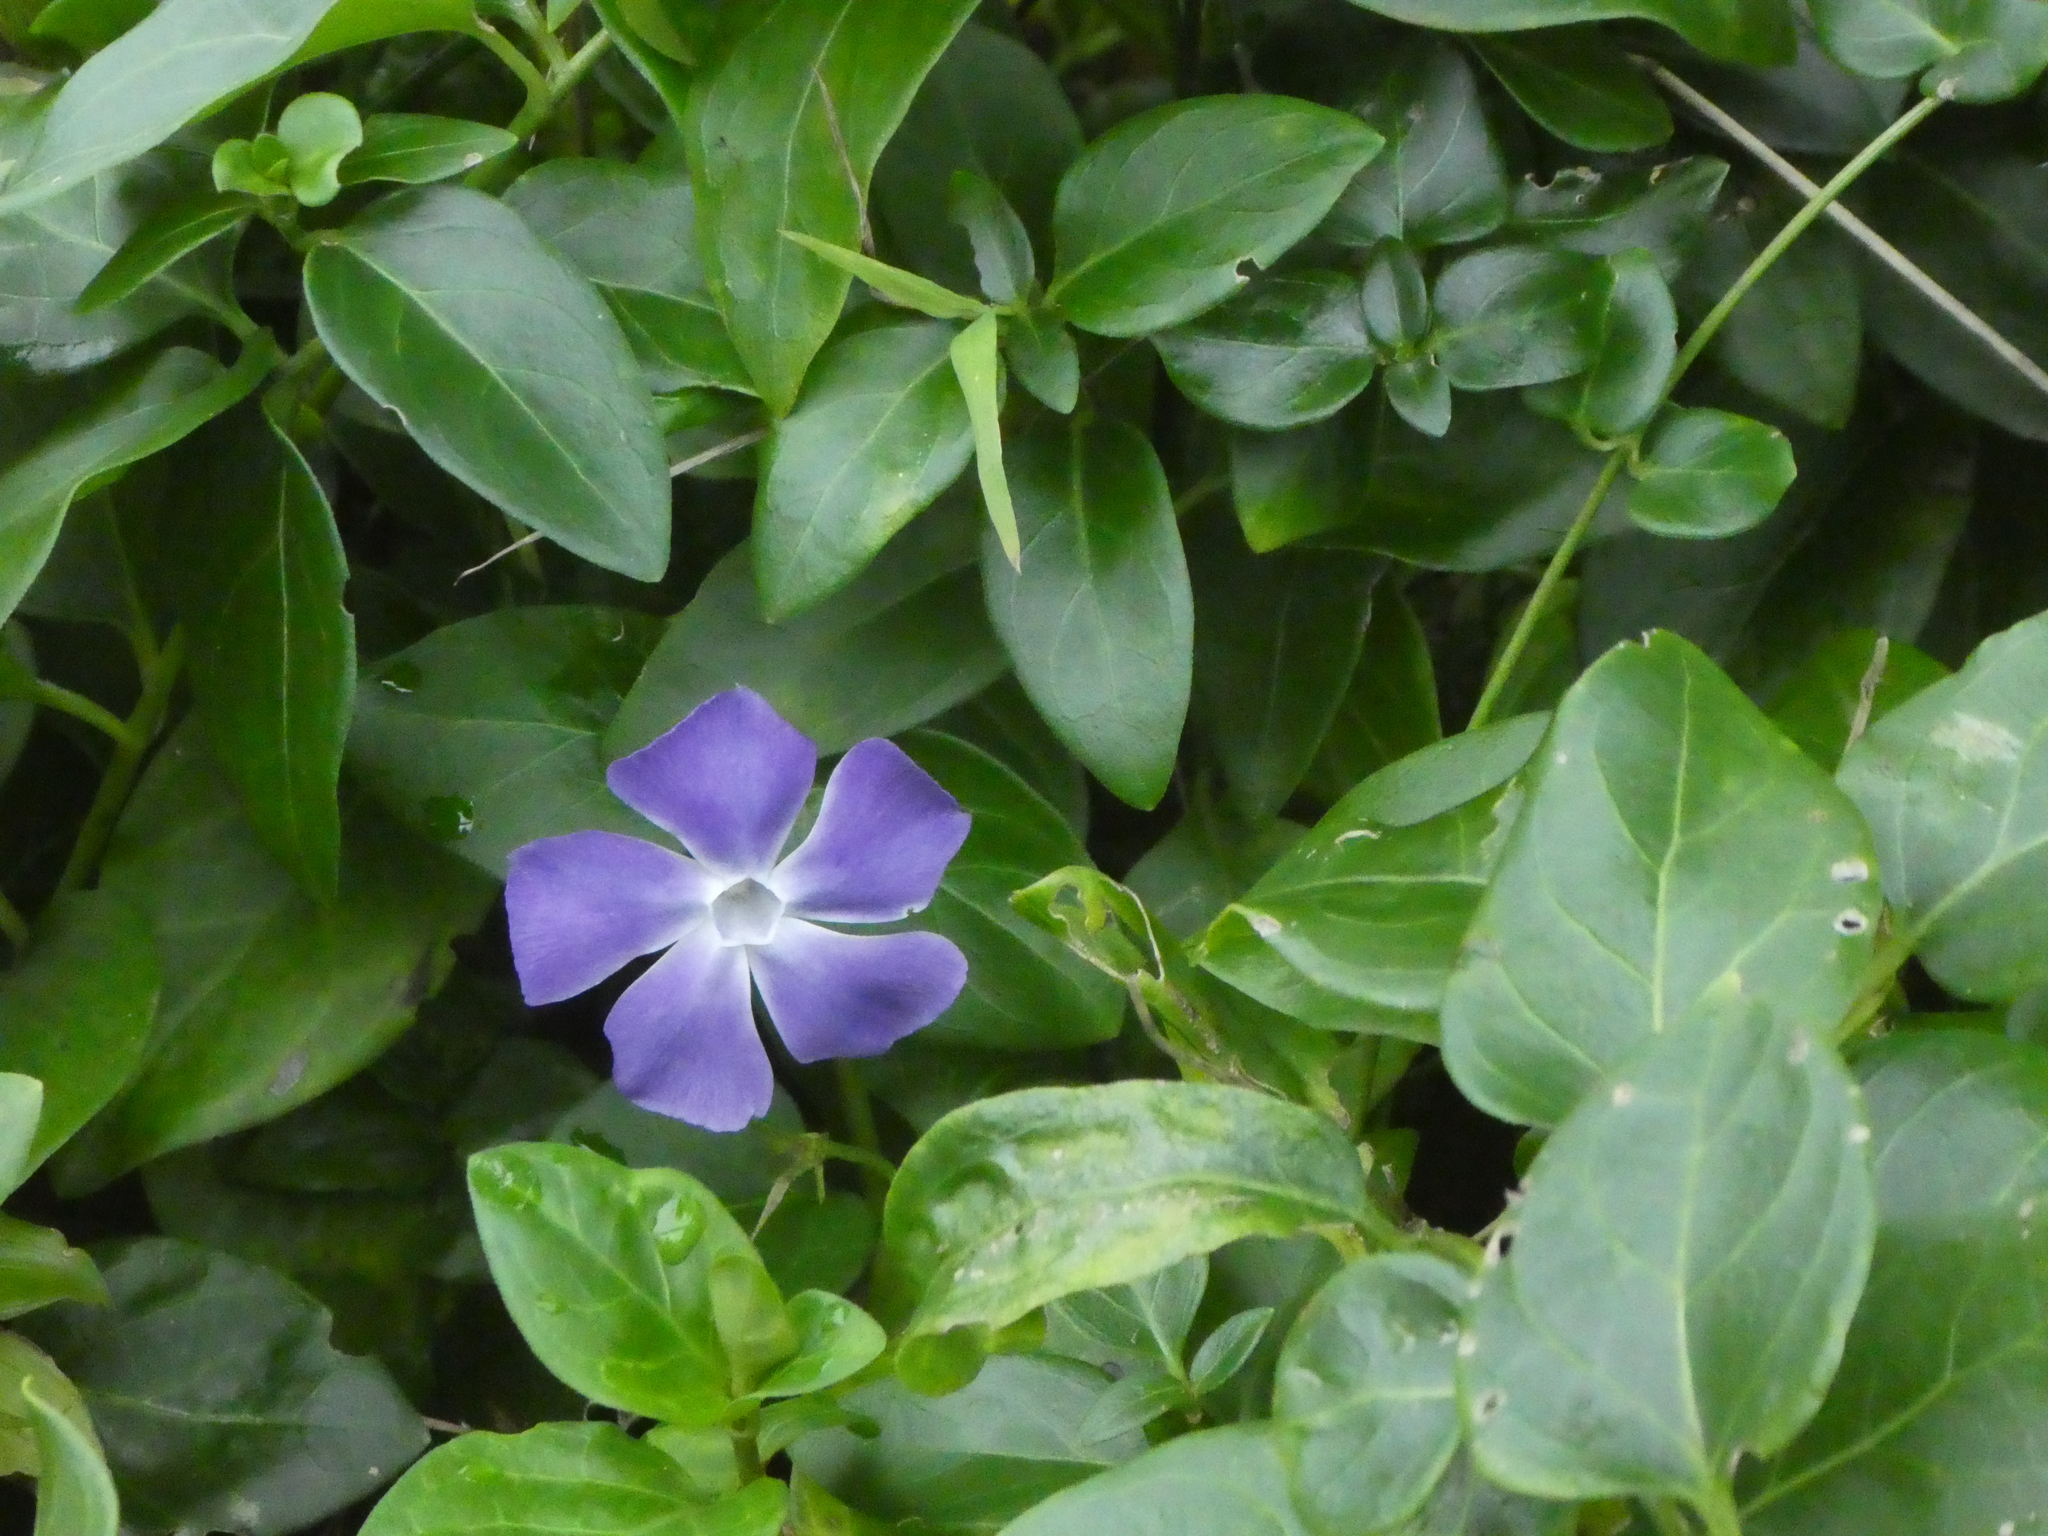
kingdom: Plantae
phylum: Tracheophyta
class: Magnoliopsida
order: Gentianales
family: Apocynaceae
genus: Vinca
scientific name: Vinca major
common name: Greater periwinkle
